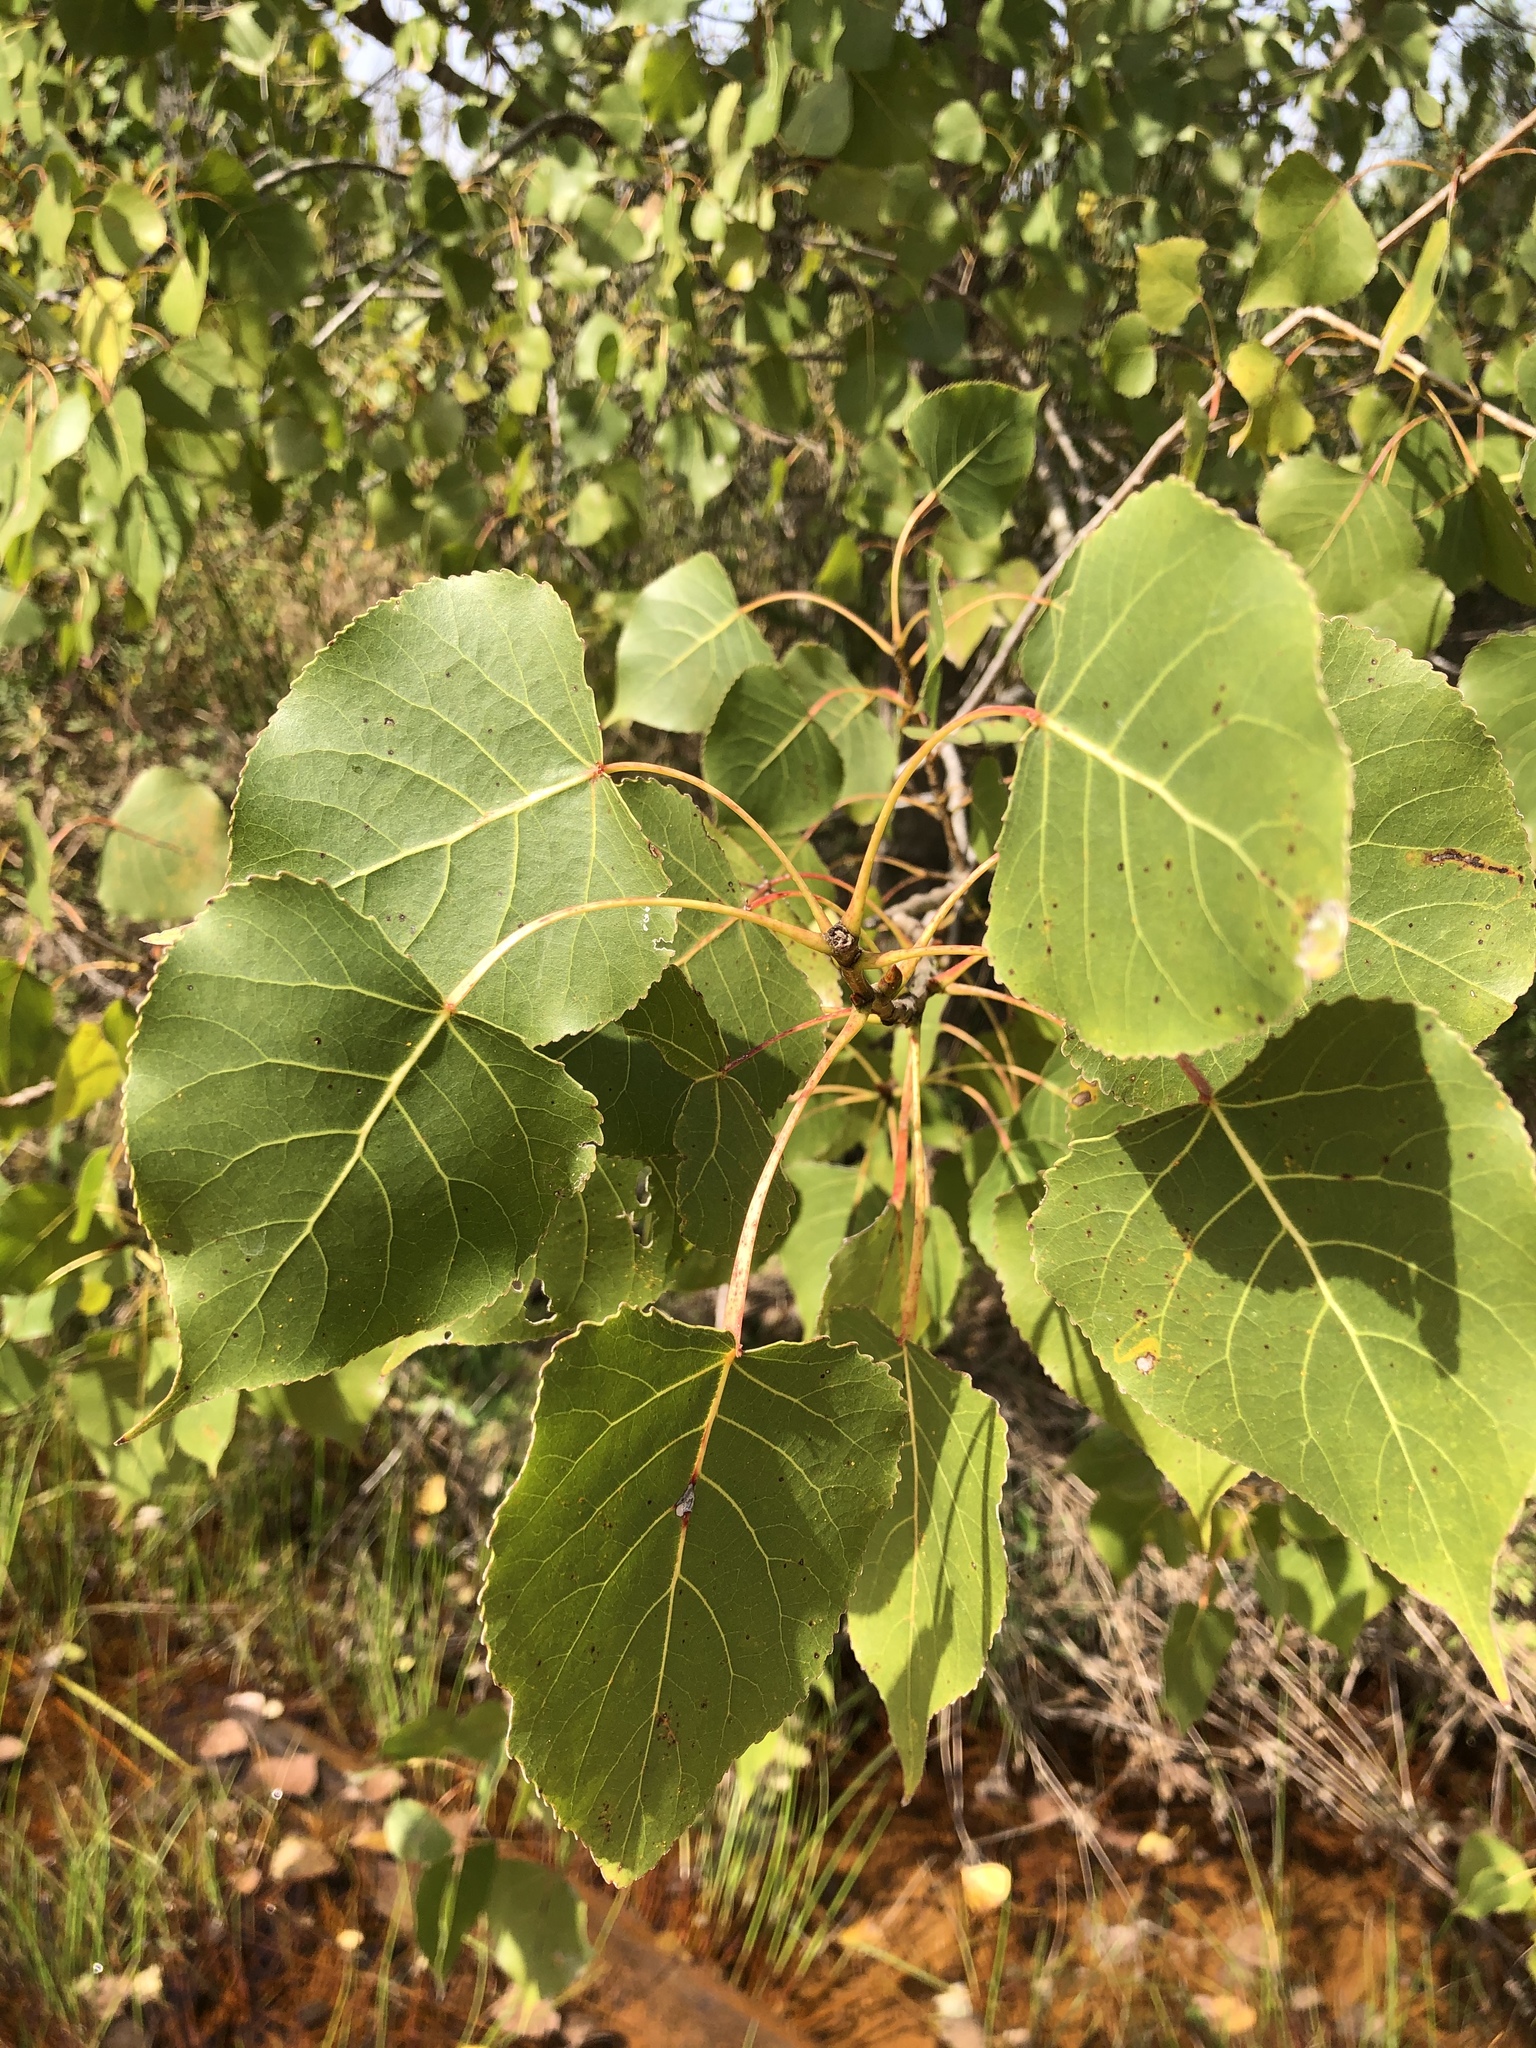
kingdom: Plantae
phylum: Tracheophyta
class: Magnoliopsida
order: Malpighiales
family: Salicaceae
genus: Populus
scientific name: Populus deltoides
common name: Eastern cottonwood
